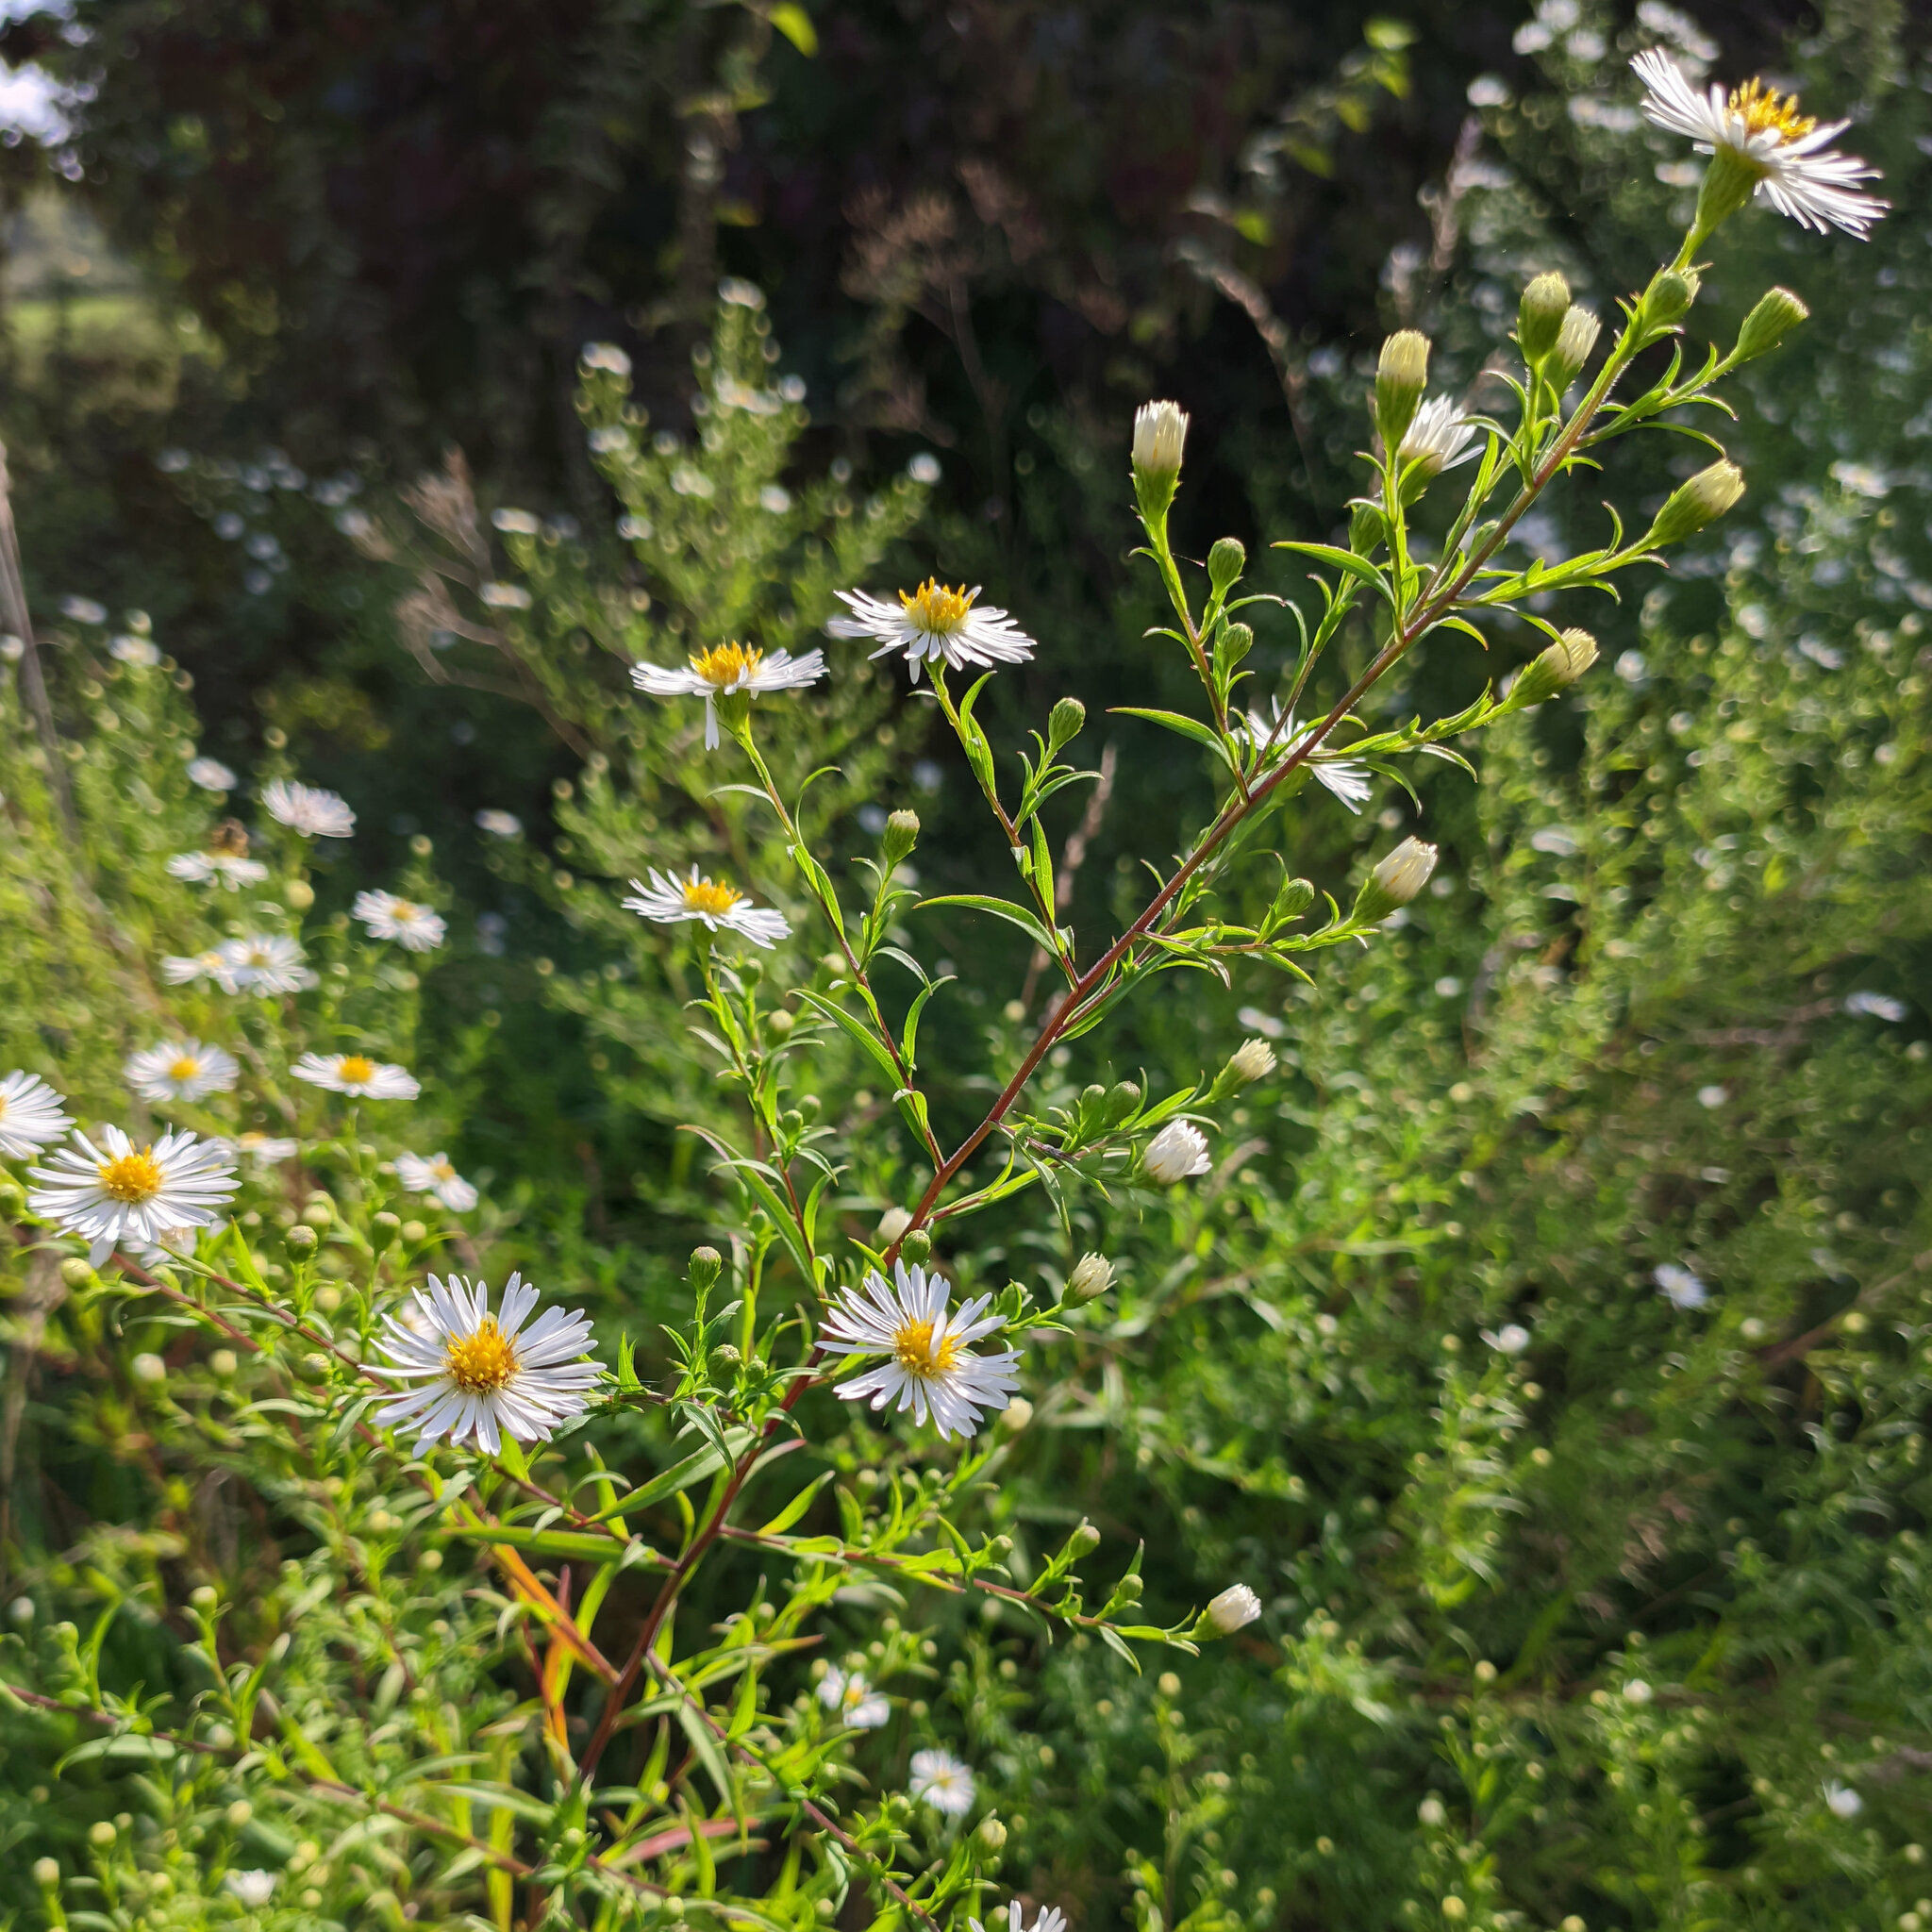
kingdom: Plantae
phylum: Tracheophyta
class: Magnoliopsida
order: Asterales
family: Asteraceae
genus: Symphyotrichum
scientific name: Symphyotrichum lanceolatum
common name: Panicled aster
